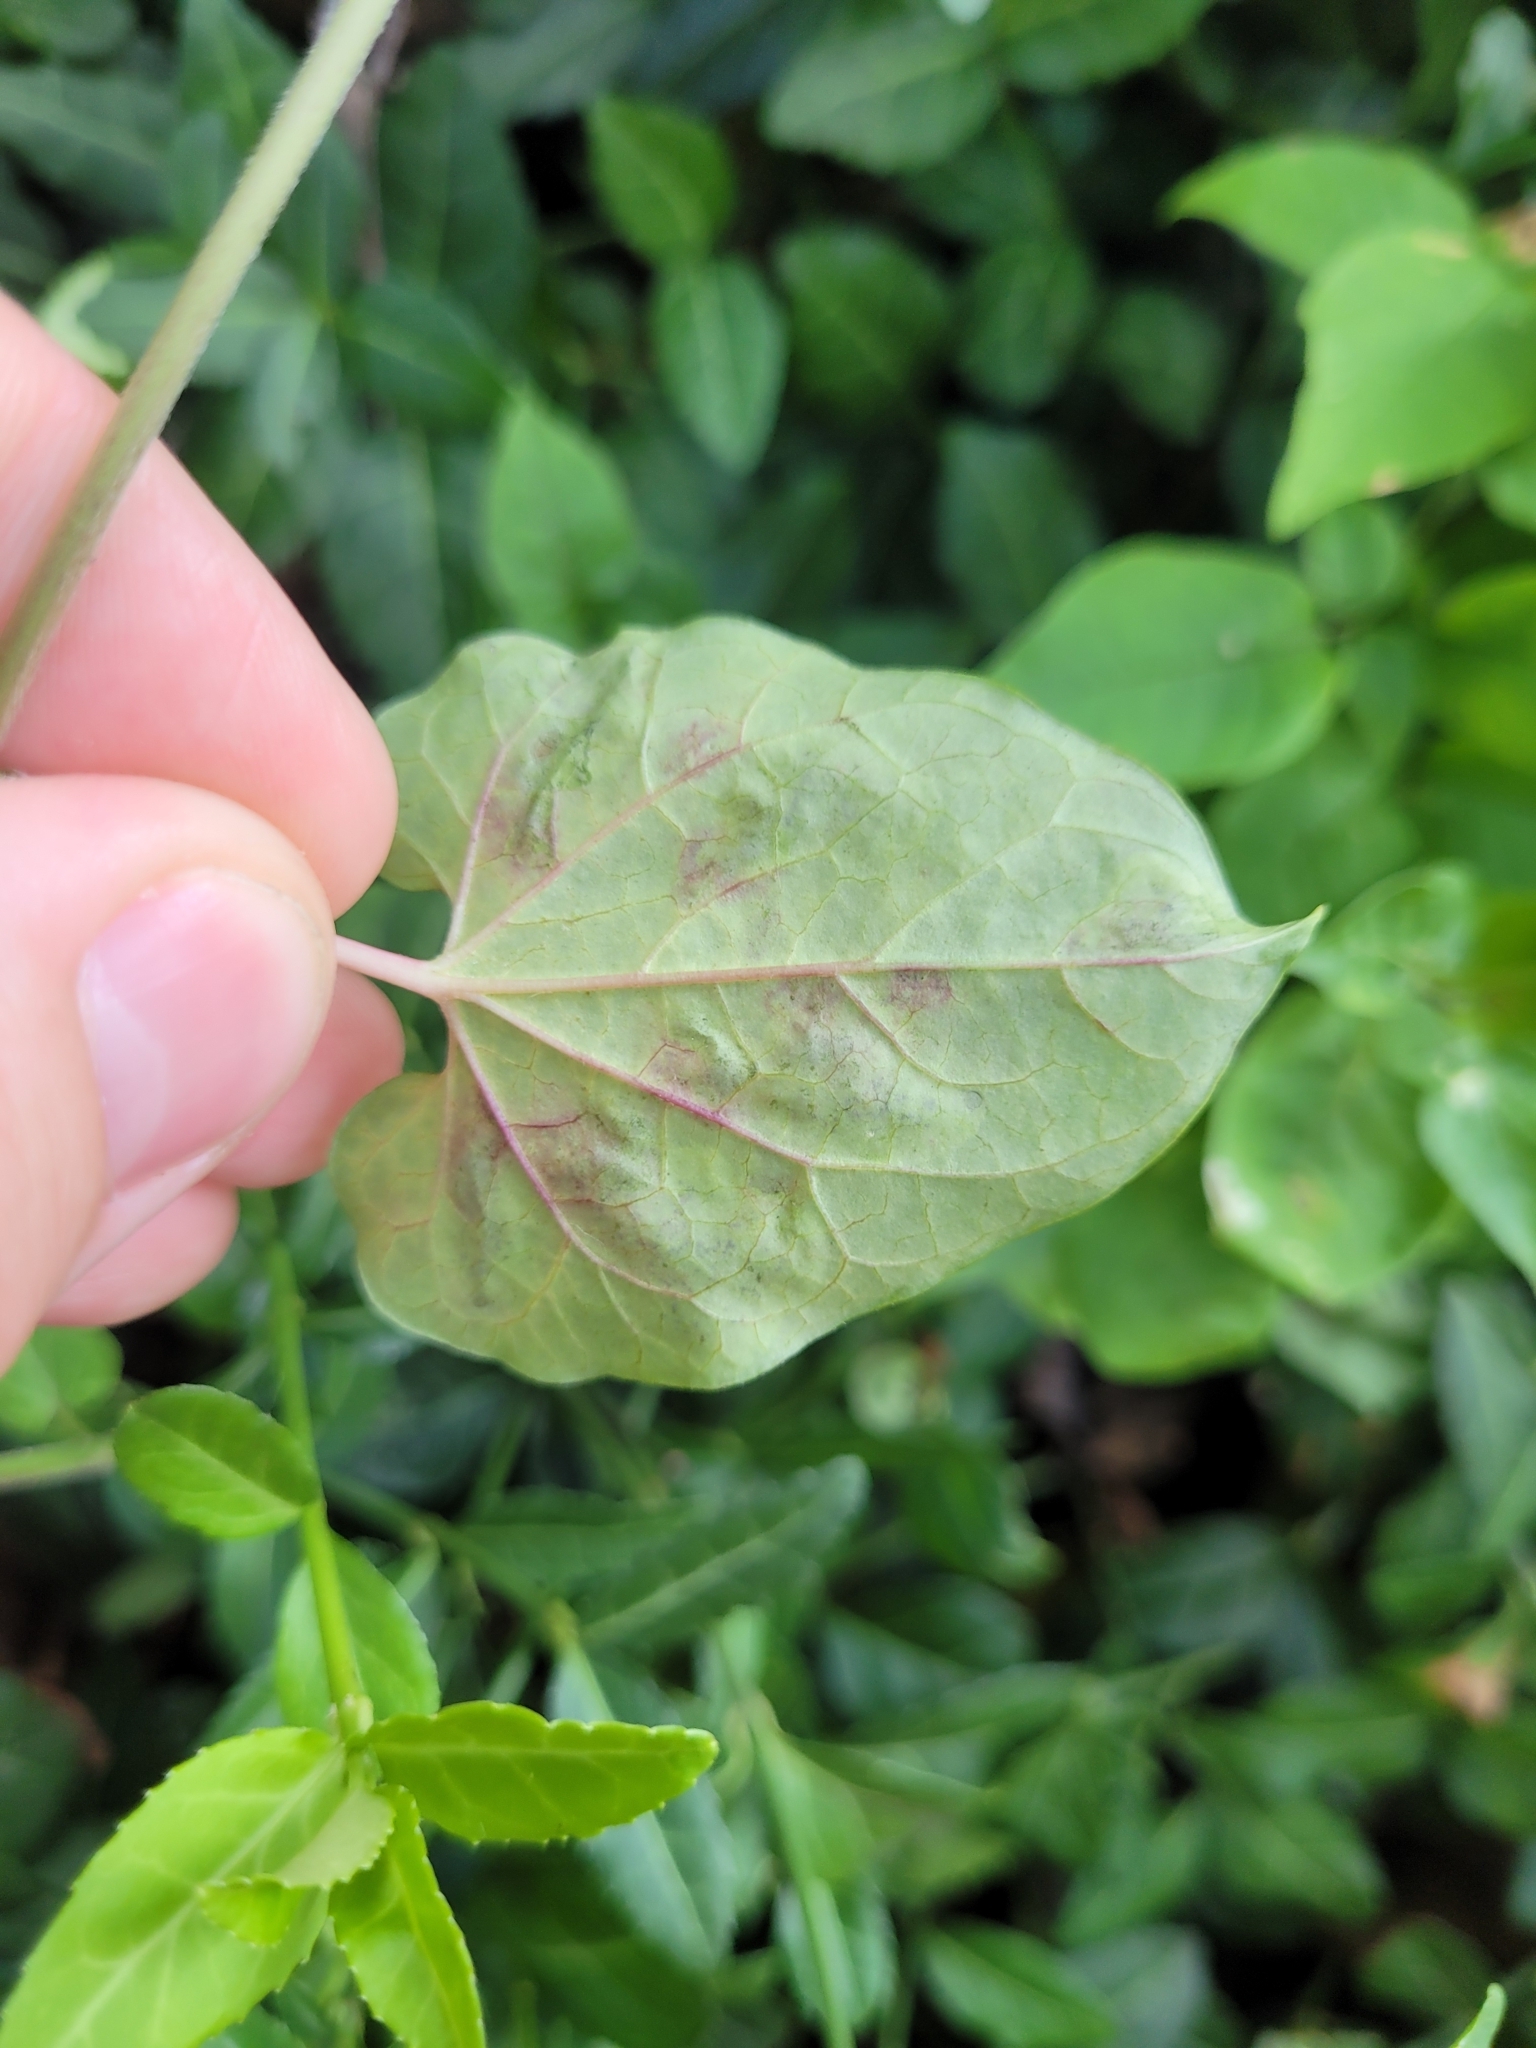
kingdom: Animalia
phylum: Arthropoda
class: Insecta
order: Diptera
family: Agromyzidae
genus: Liriomyza
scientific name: Liriomyza asclepiadis
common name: Milkweed leaf-miner fly
